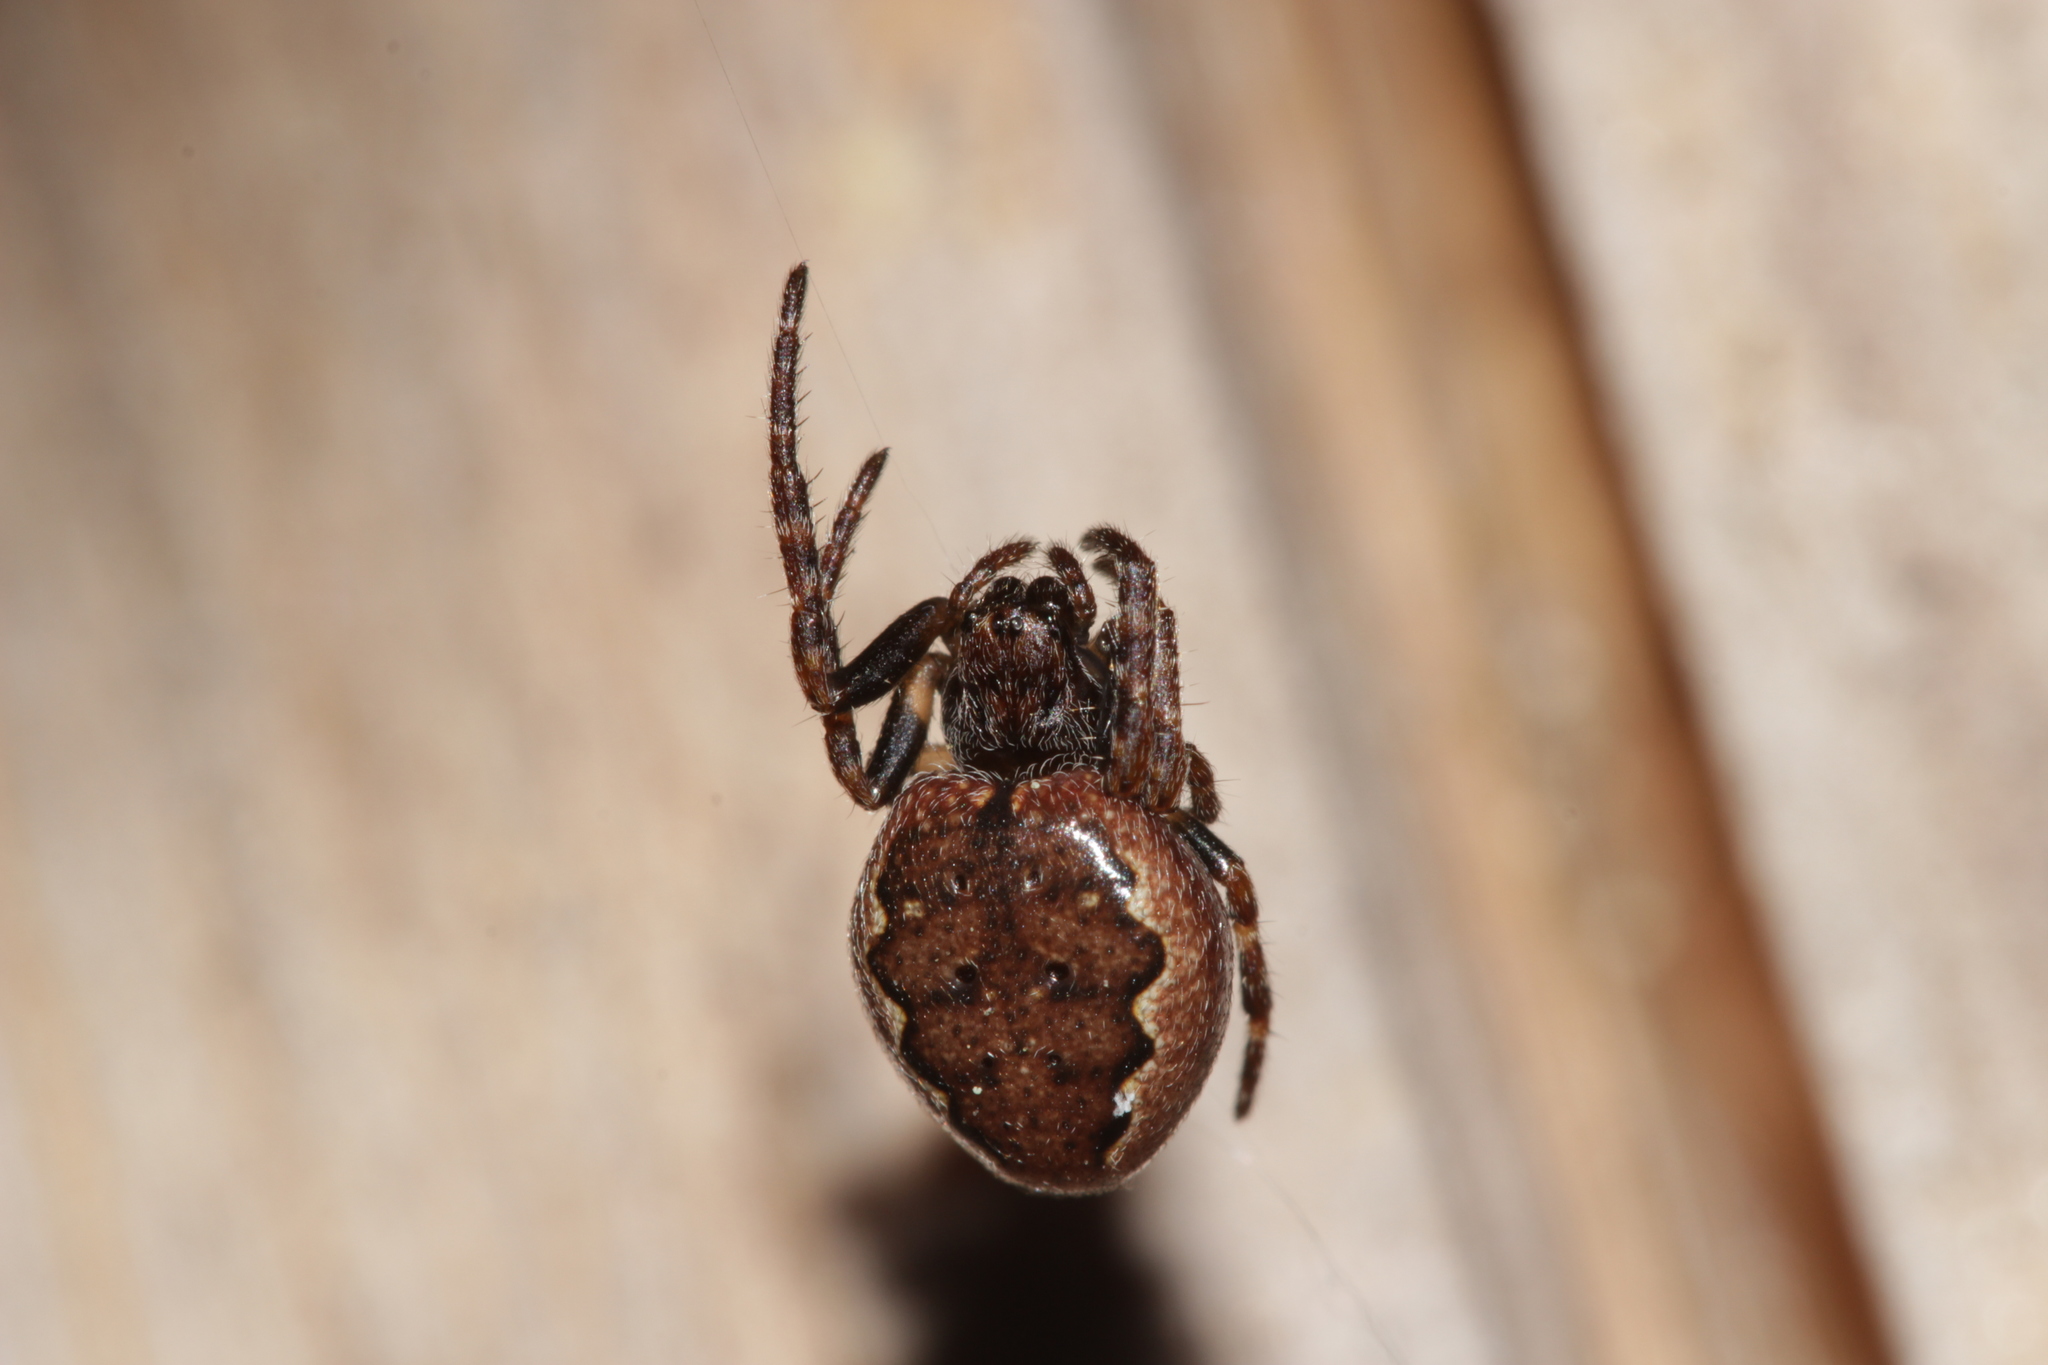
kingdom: Animalia
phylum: Arthropoda
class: Arachnida
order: Araneae
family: Araneidae
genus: Nuctenea
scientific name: Nuctenea umbratica
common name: Toad spider
